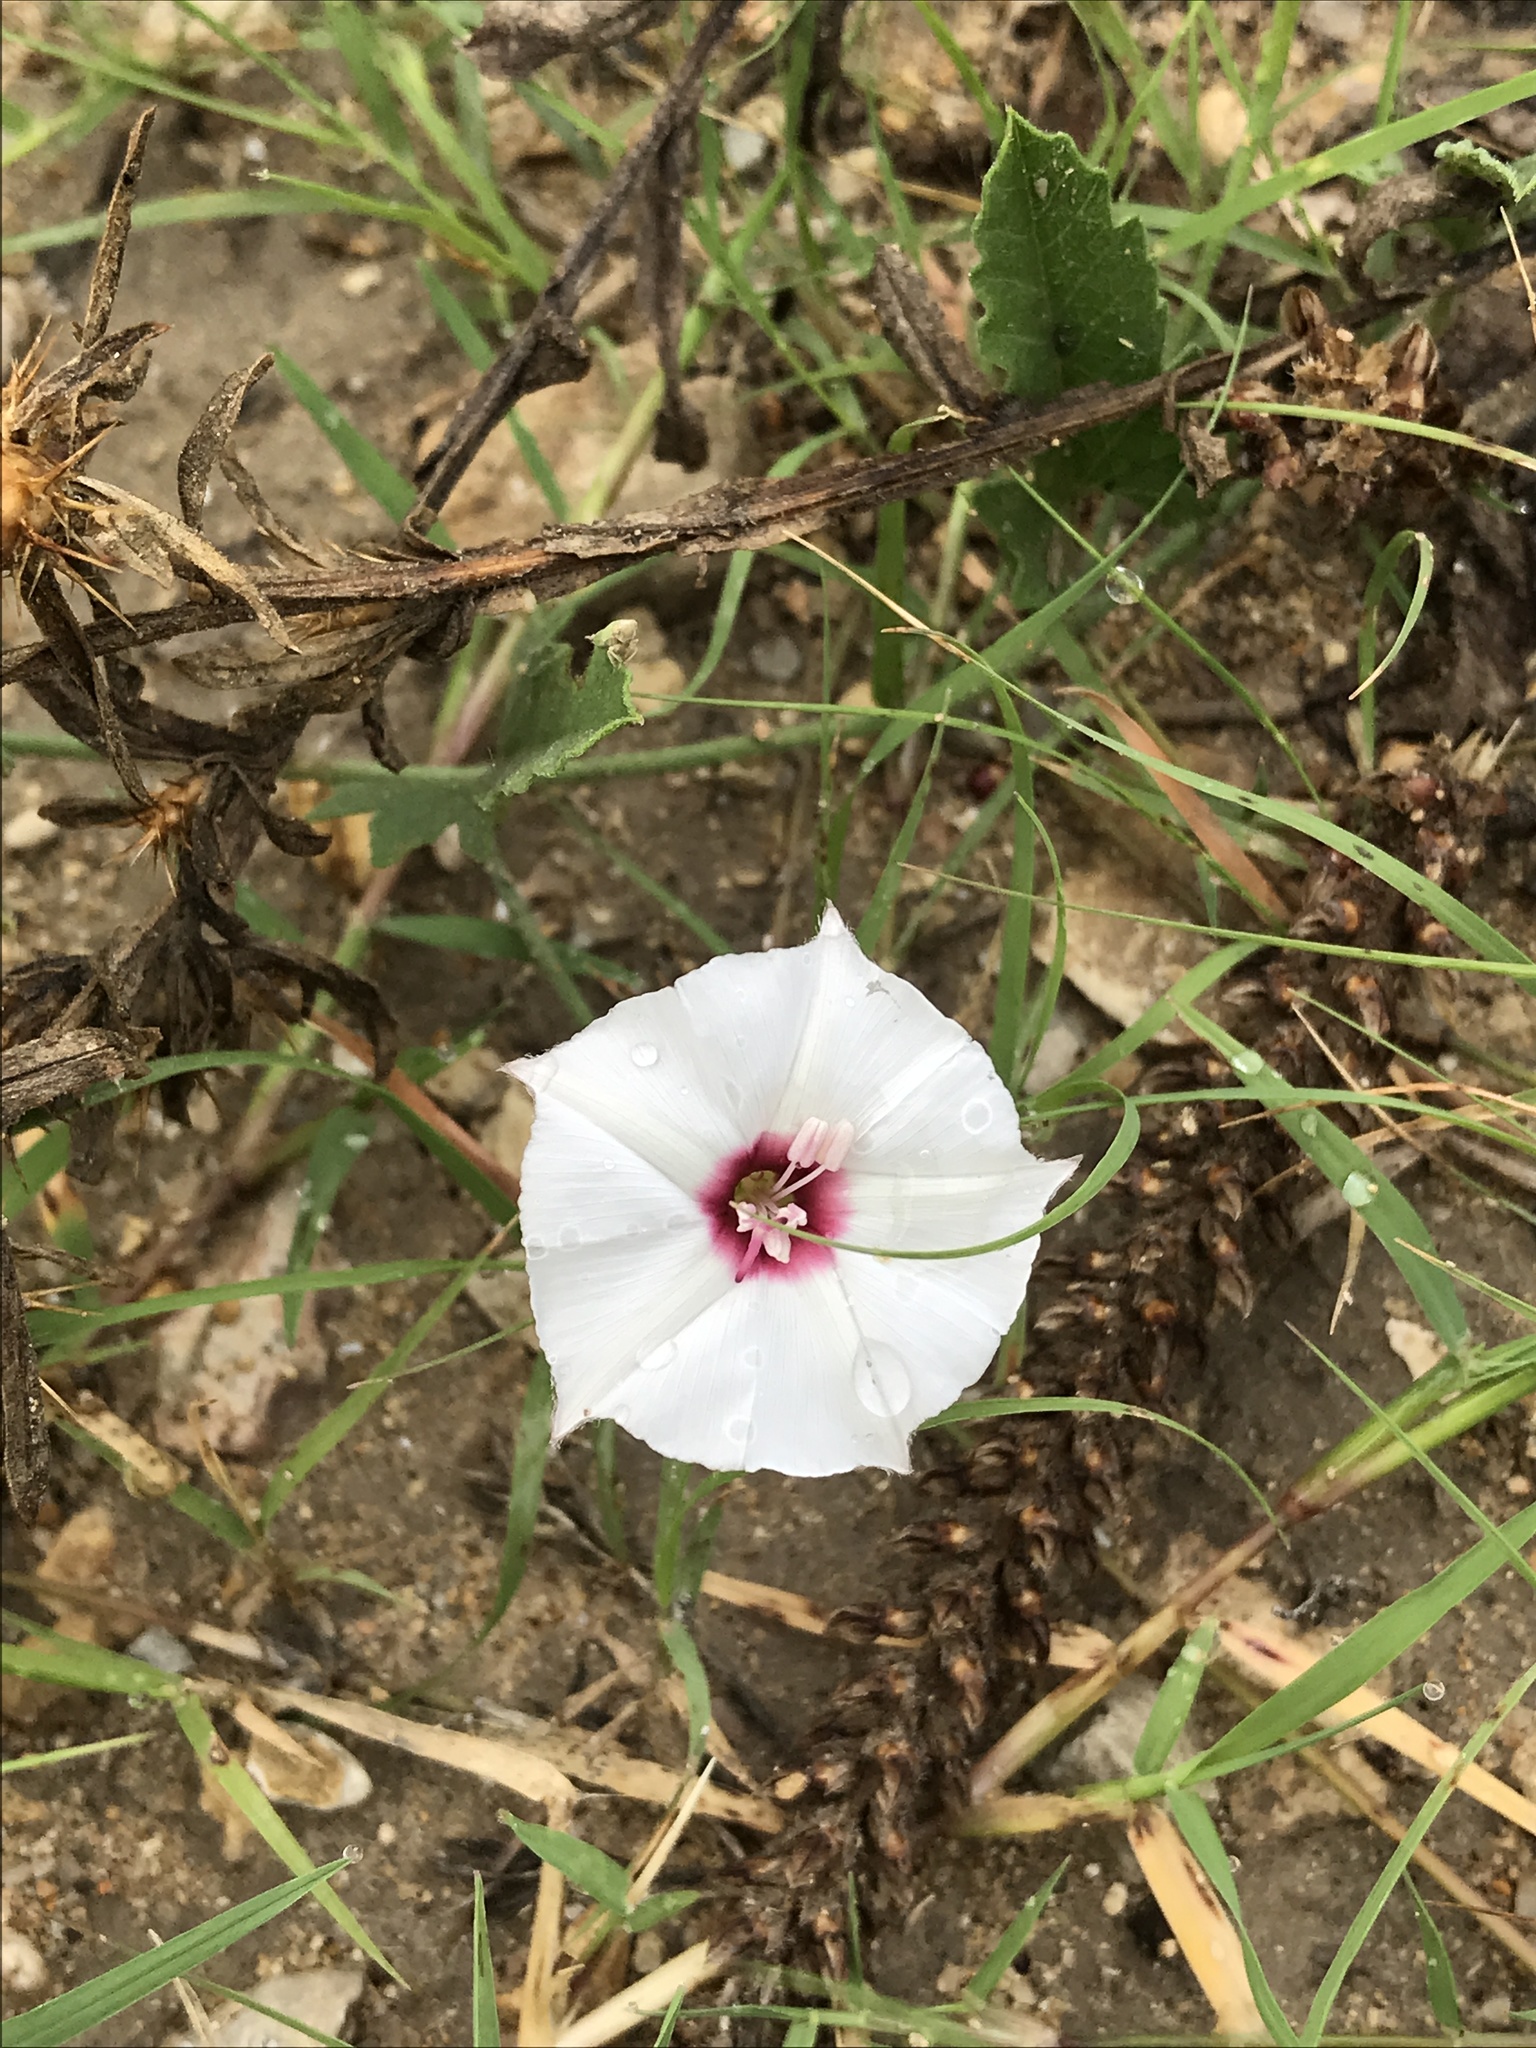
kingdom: Plantae
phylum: Tracheophyta
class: Magnoliopsida
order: Solanales
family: Convolvulaceae
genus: Convolvulus
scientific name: Convolvulus equitans
